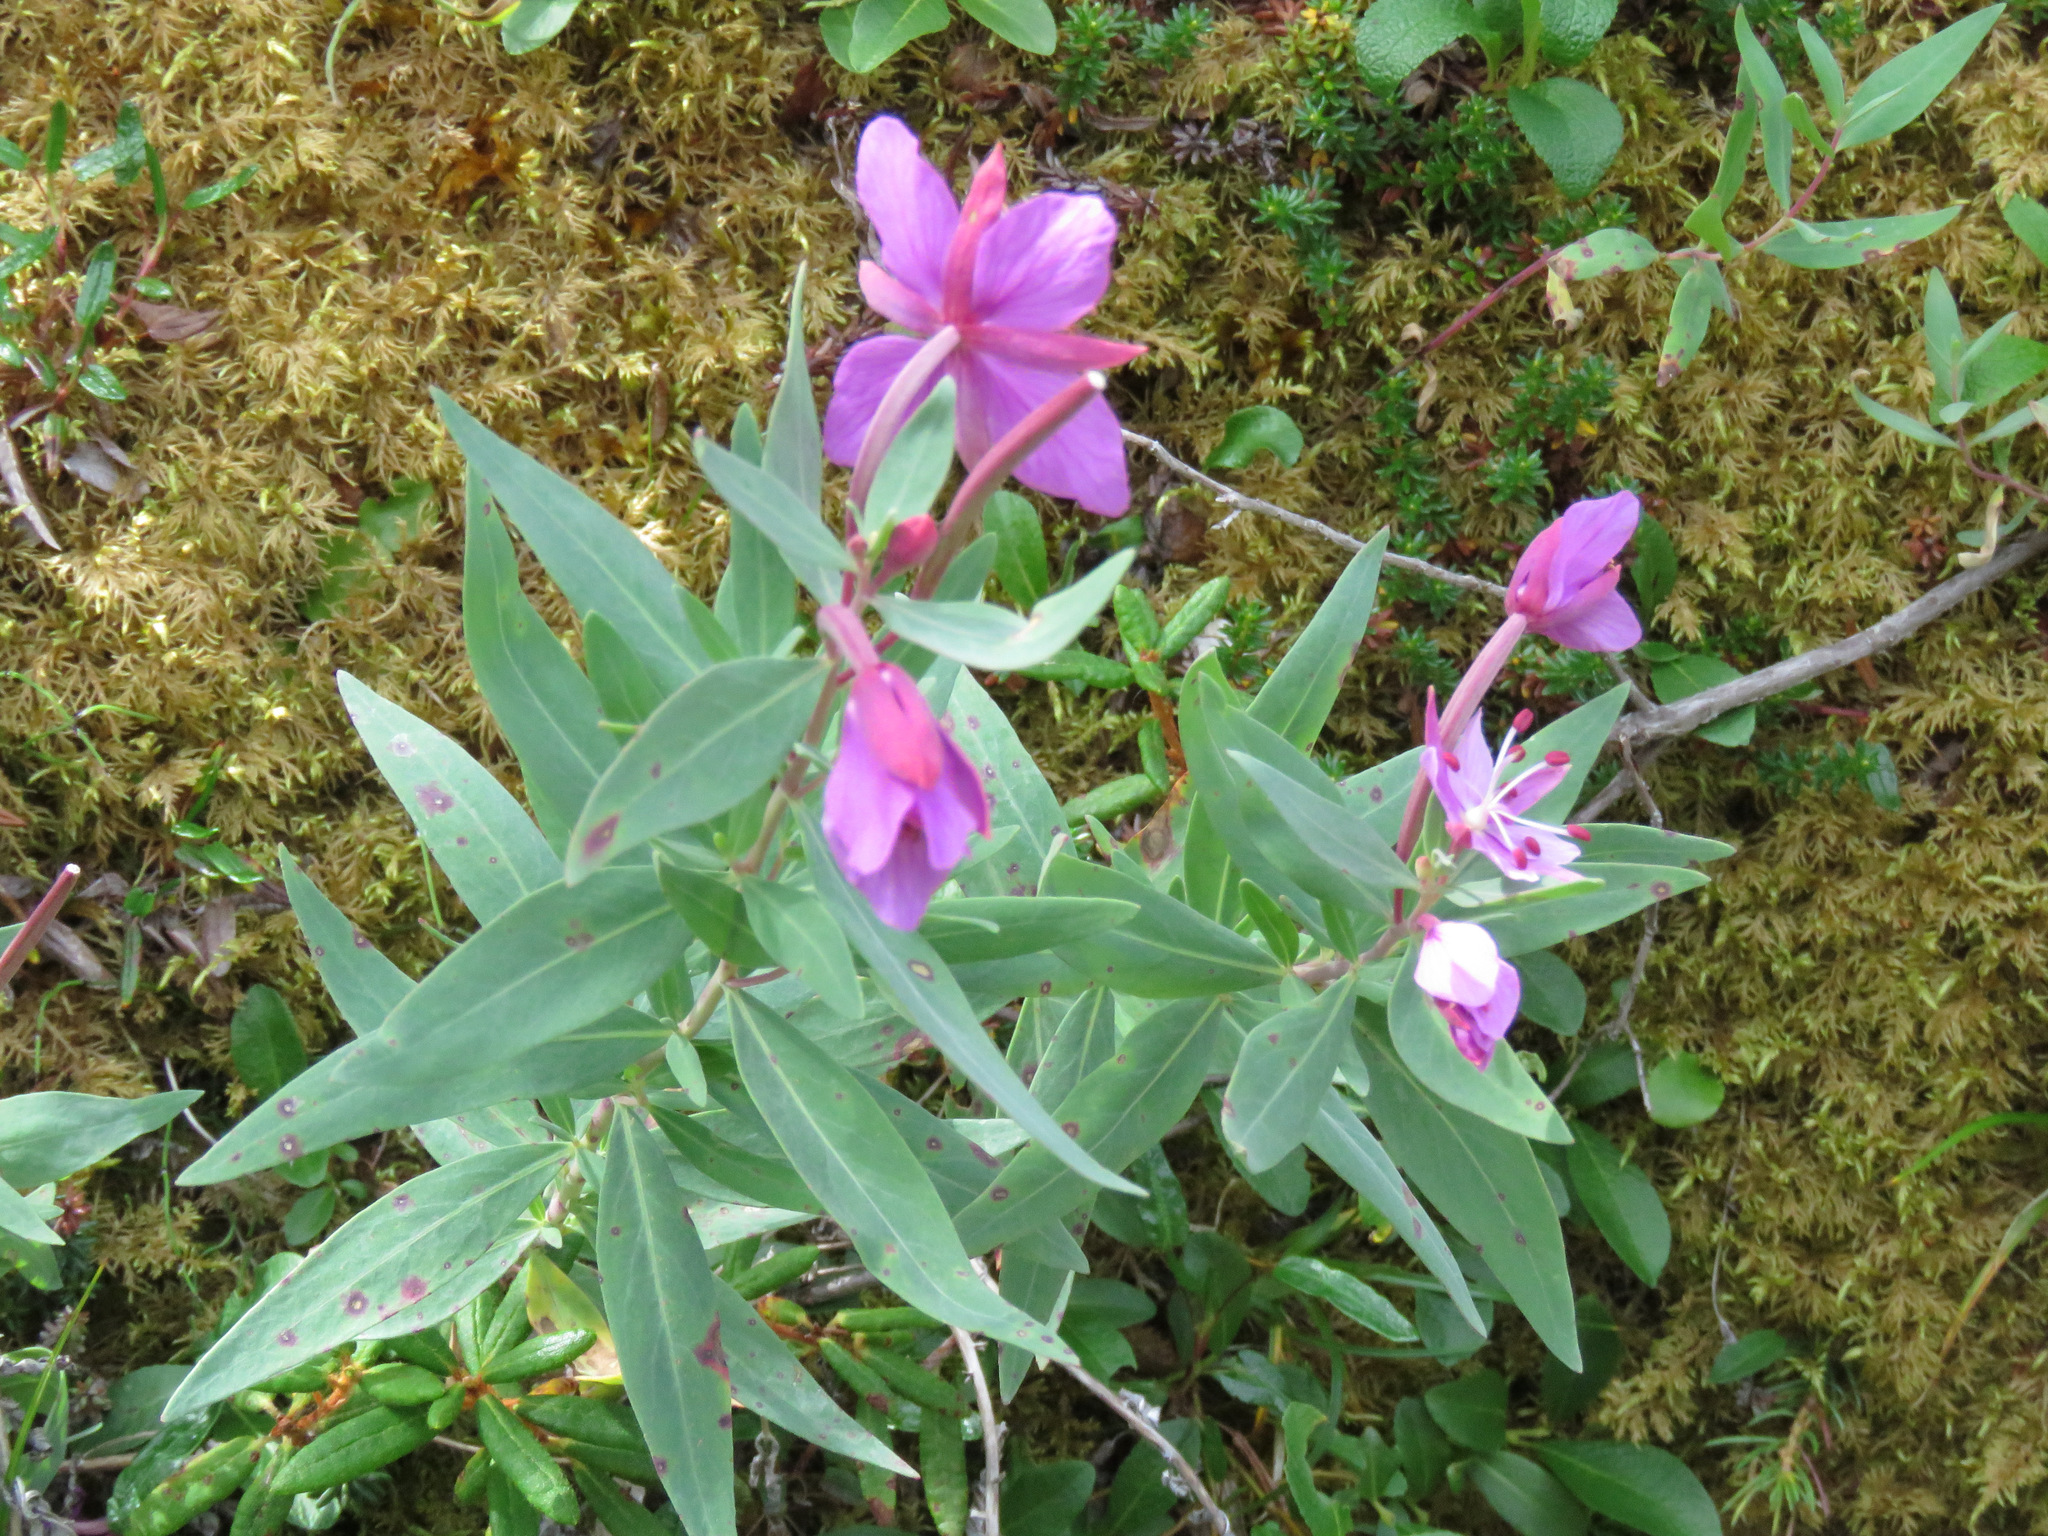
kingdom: Plantae
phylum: Tracheophyta
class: Magnoliopsida
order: Myrtales
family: Onagraceae
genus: Chamaenerion
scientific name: Chamaenerion latifolium
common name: Dwarf fireweed
